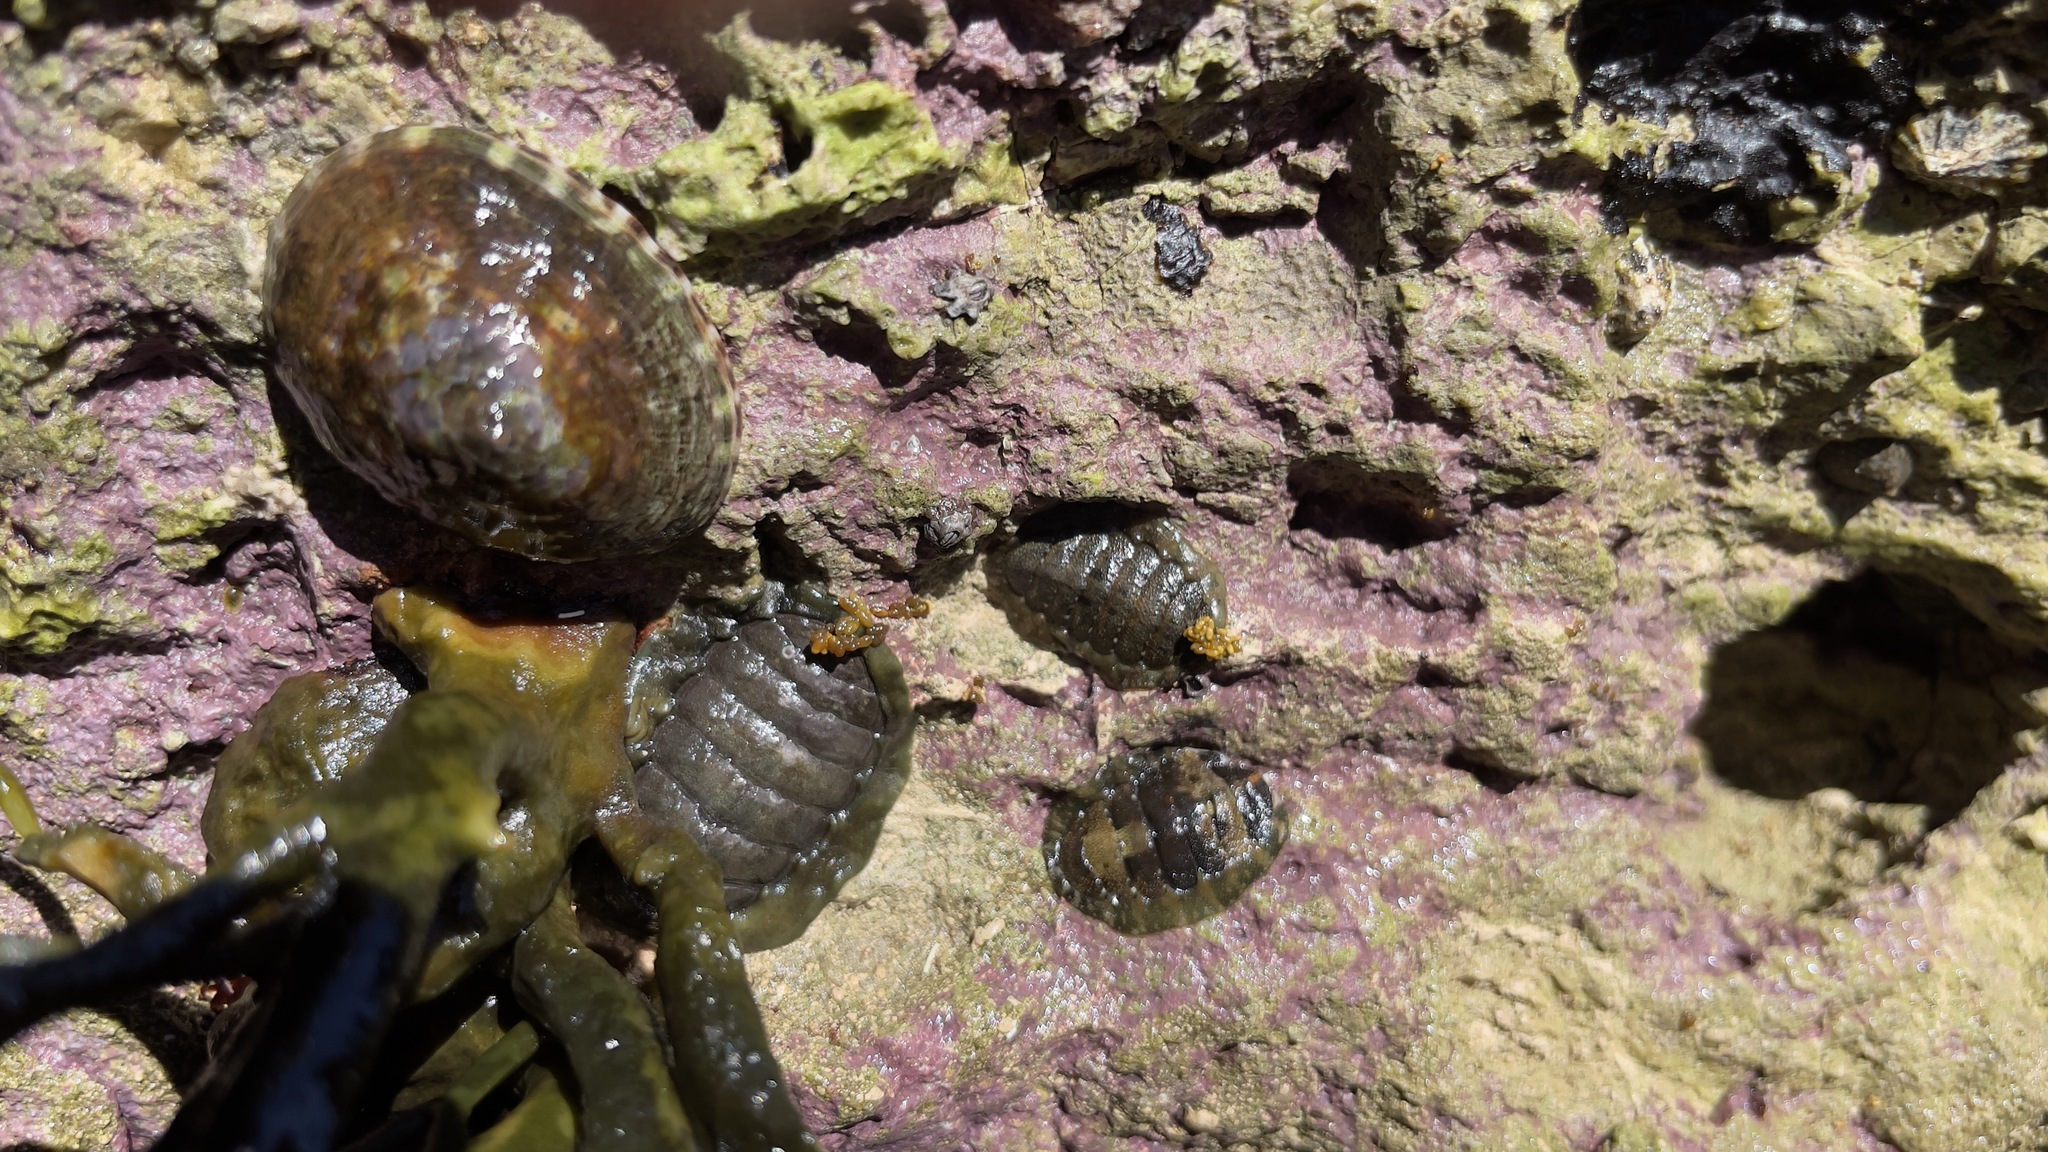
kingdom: Animalia
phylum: Mollusca
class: Polyplacophora
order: Chitonida
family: Tonicellidae
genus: Cyanoplax
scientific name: Cyanoplax hartwegii
